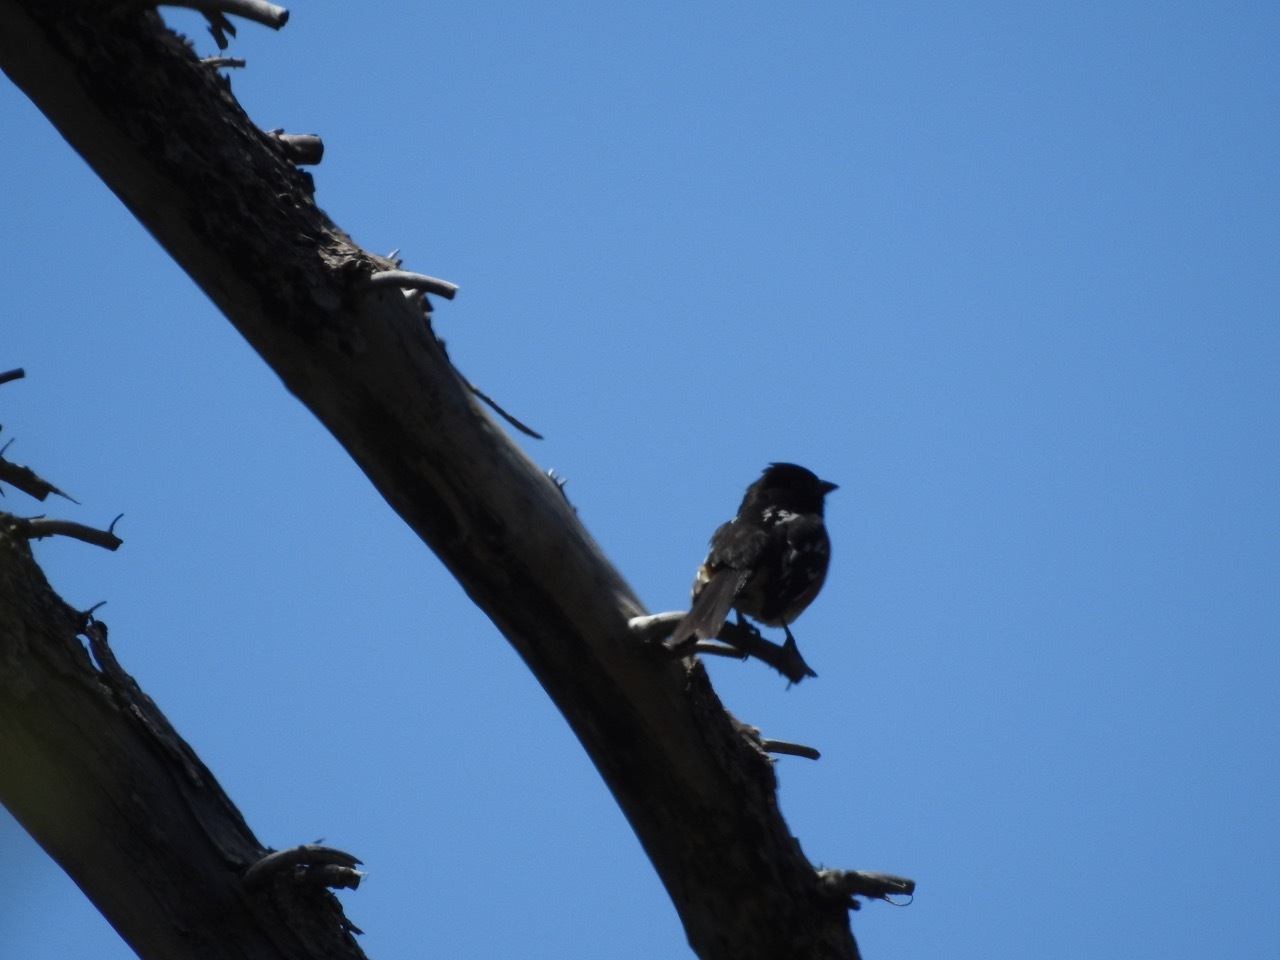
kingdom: Animalia
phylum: Chordata
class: Aves
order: Passeriformes
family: Passerellidae
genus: Pipilo
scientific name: Pipilo maculatus
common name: Spotted towhee
